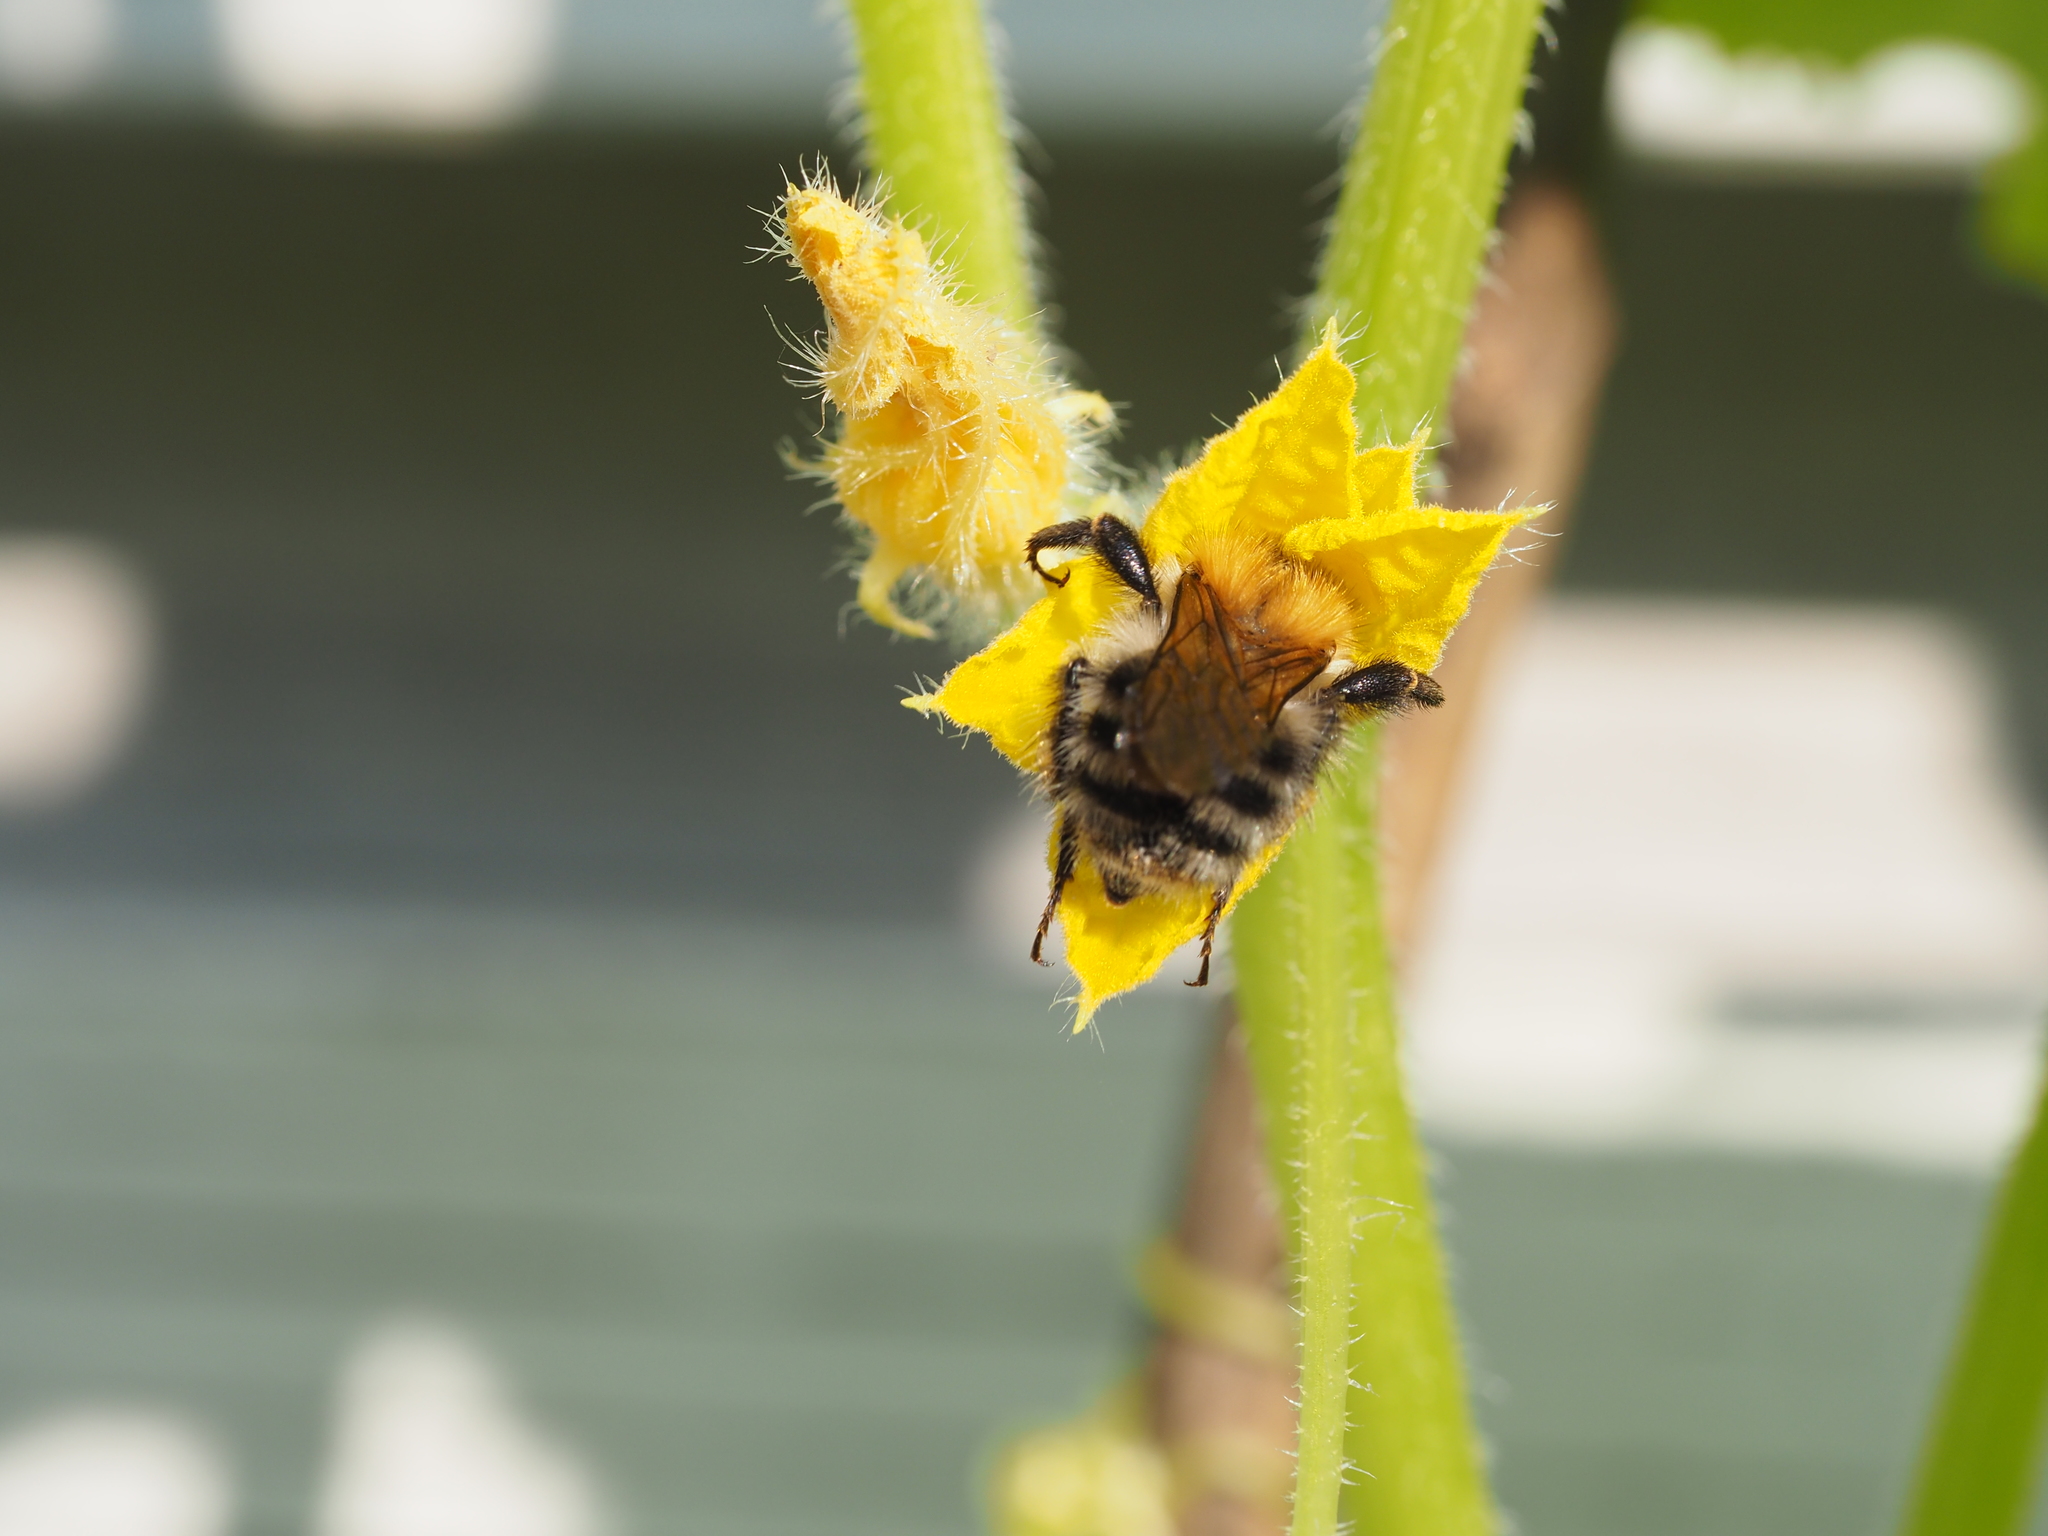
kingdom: Animalia
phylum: Arthropoda
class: Insecta
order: Hymenoptera
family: Apidae
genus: Bombus
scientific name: Bombus pascuorum
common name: Common carder bee
